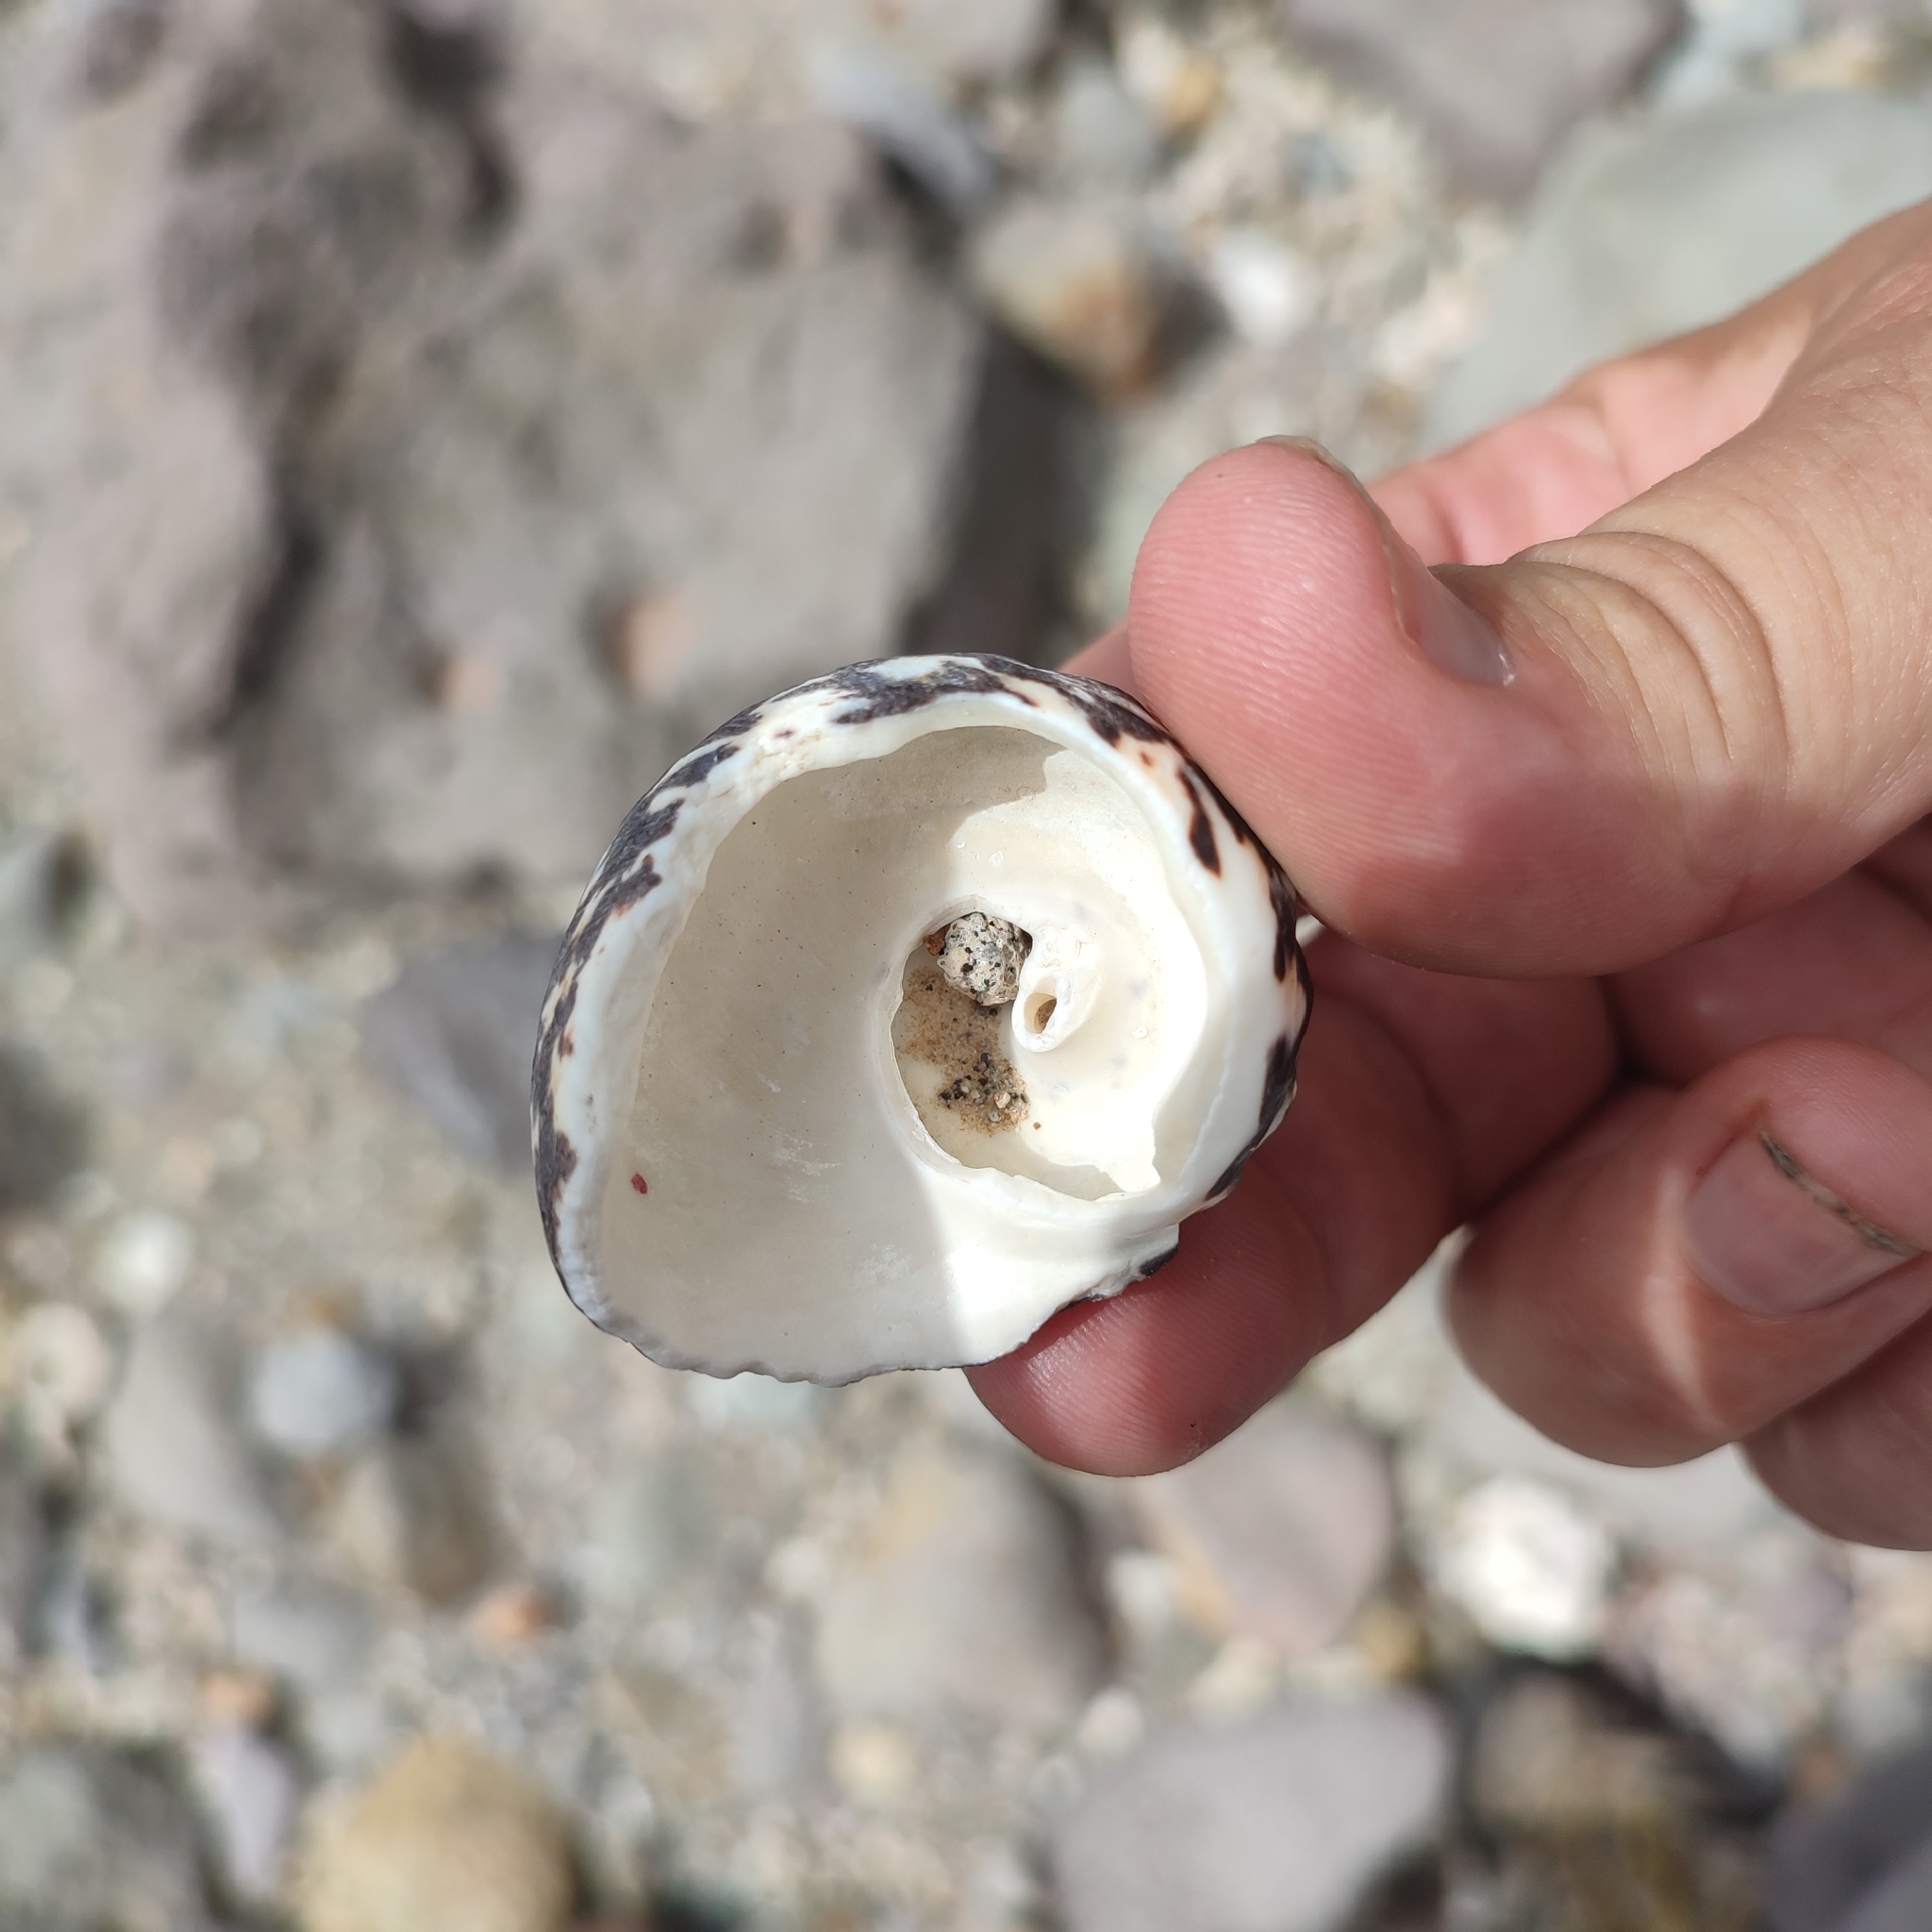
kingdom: Animalia
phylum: Mollusca
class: Gastropoda
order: Trochida
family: Tegulidae
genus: Cittarium
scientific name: Cittarium pica
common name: West indian topshell
